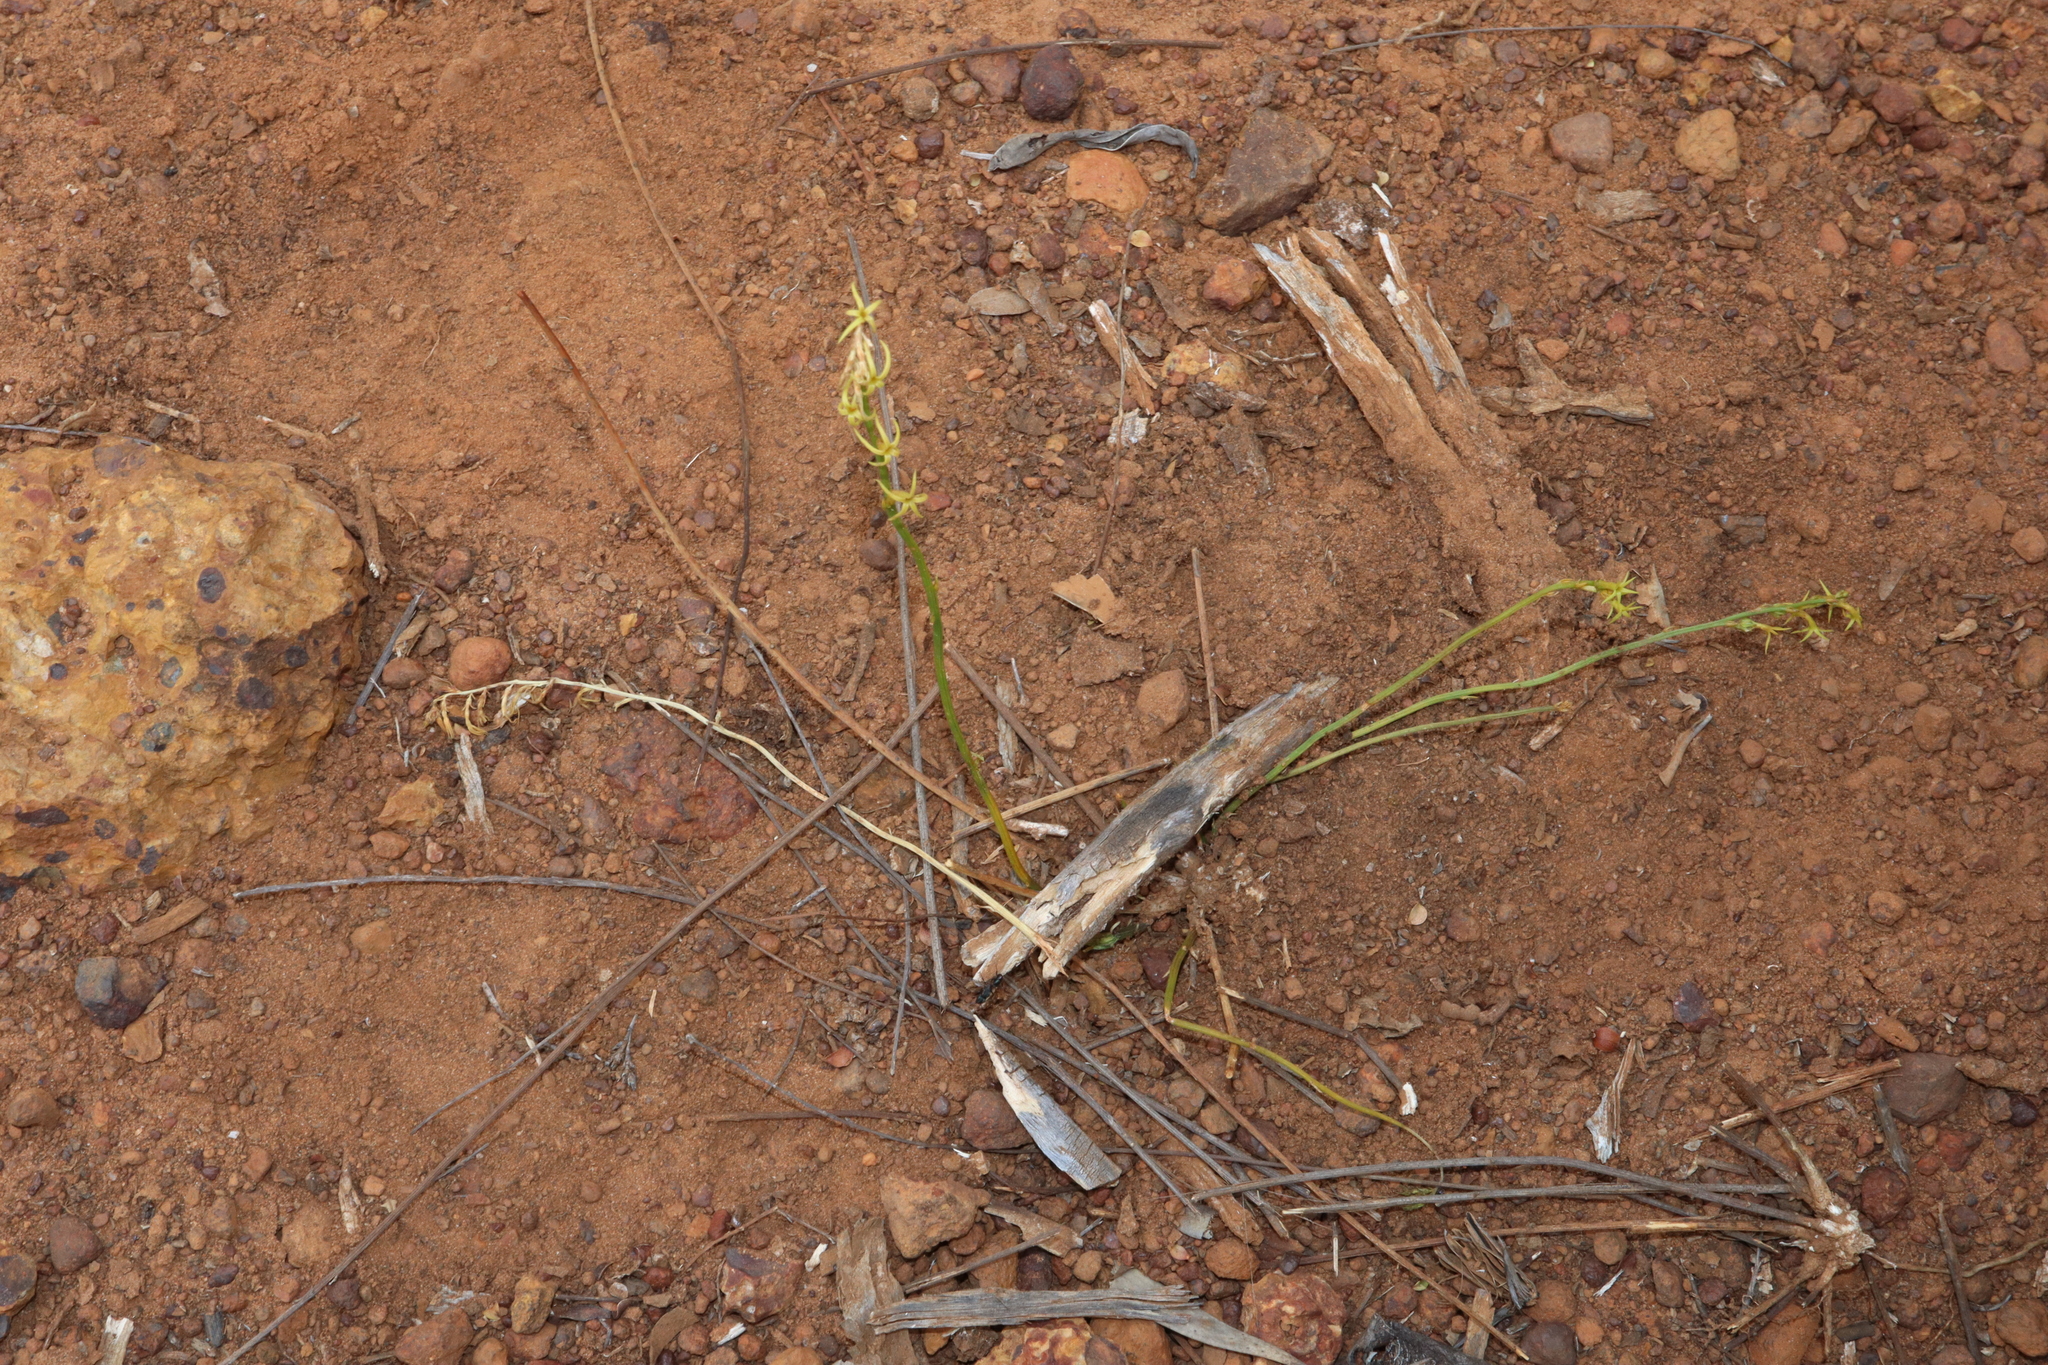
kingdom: Plantae
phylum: Tracheophyta
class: Magnoliopsida
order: Celastrales
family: Celastraceae
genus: Tripterococcus
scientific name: Tripterococcus brunonis
